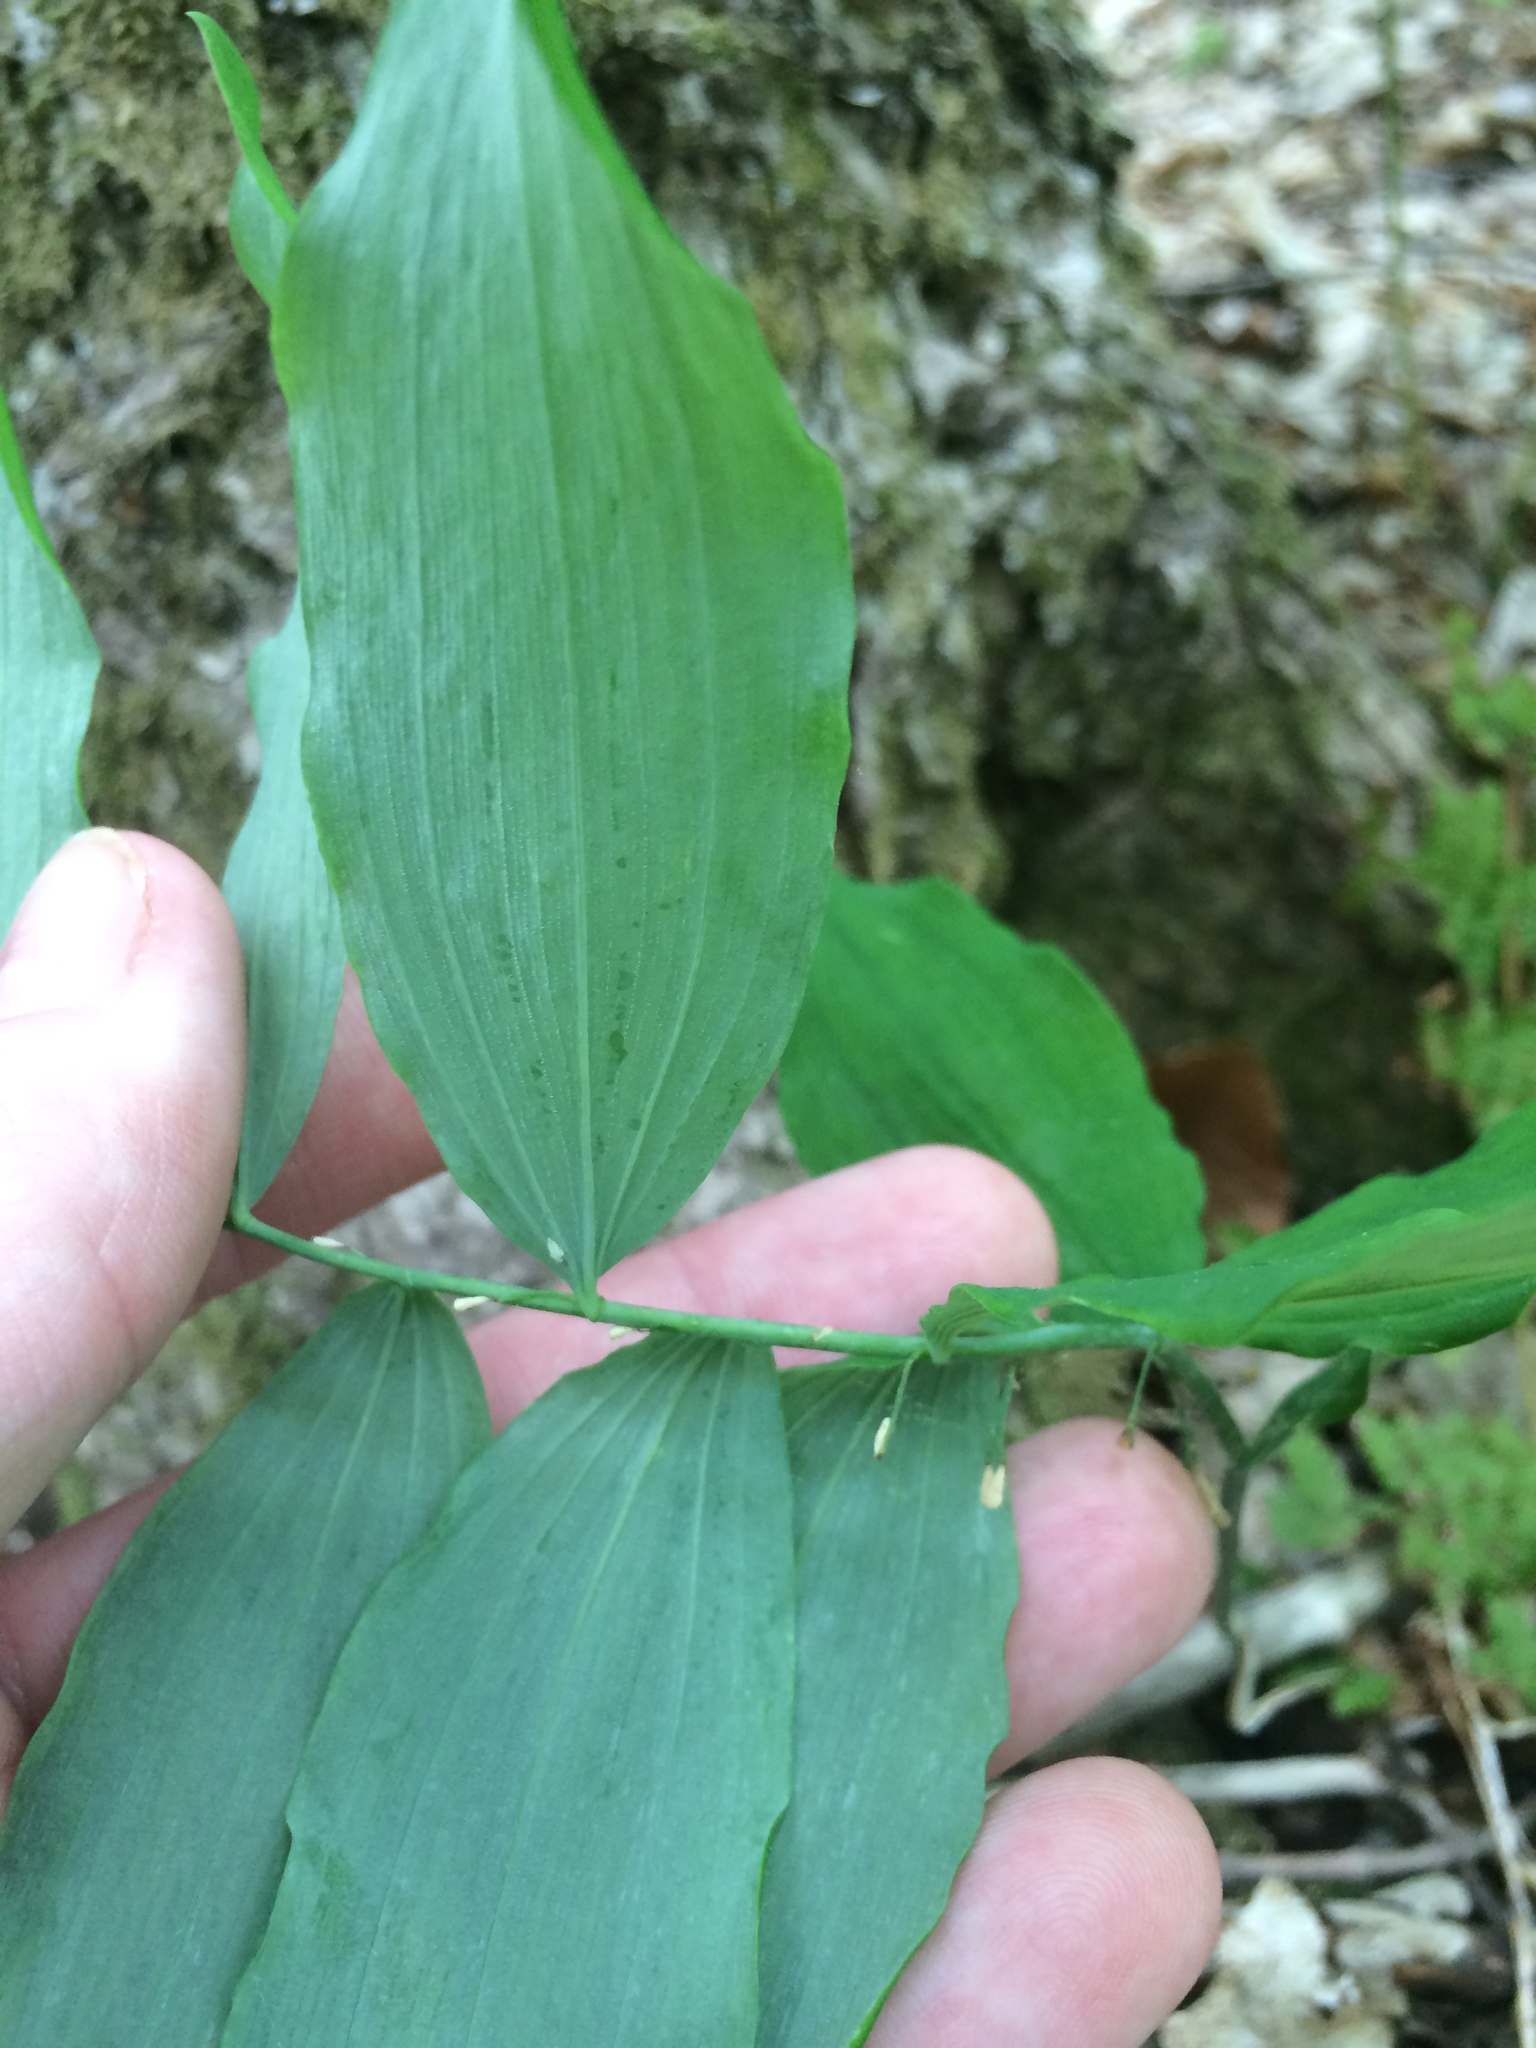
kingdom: Plantae
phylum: Tracheophyta
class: Liliopsida
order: Asparagales
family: Asparagaceae
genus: Polygonatum
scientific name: Polygonatum pubescens
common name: Downy solomon's seal
